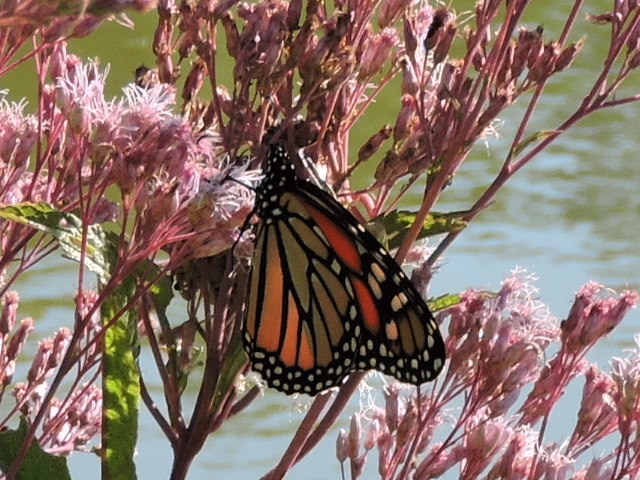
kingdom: Animalia
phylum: Arthropoda
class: Insecta
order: Lepidoptera
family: Nymphalidae
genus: Danaus
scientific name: Danaus plexippus
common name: Monarch
